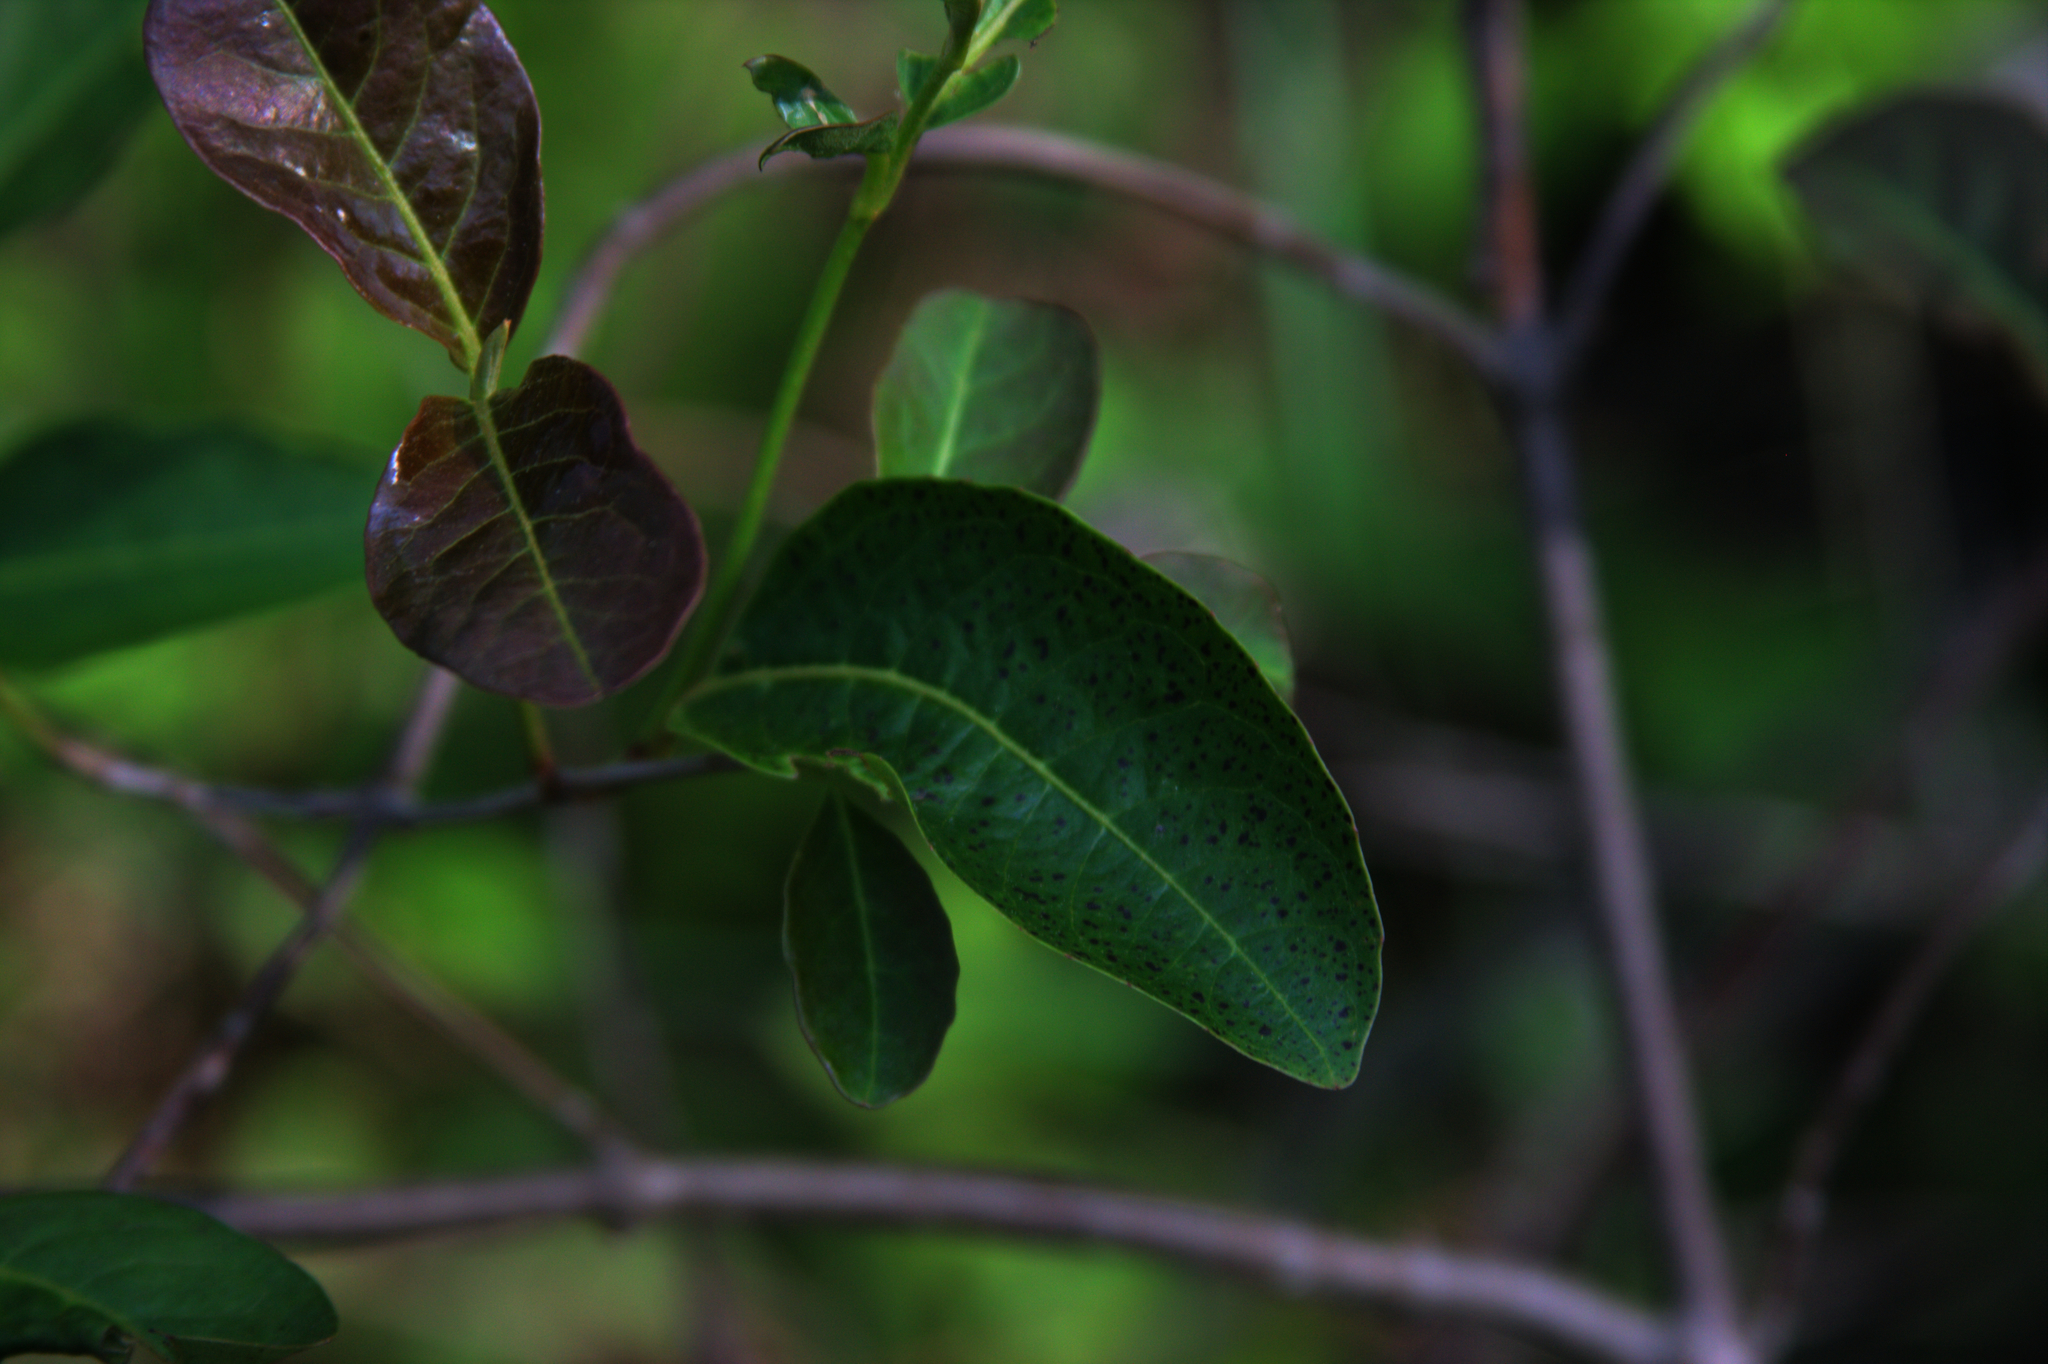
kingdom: Plantae
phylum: Tracheophyta
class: Magnoliopsida
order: Dipsacales
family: Viburnaceae
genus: Viburnum
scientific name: Viburnum cassinoides
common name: Swamp haw
